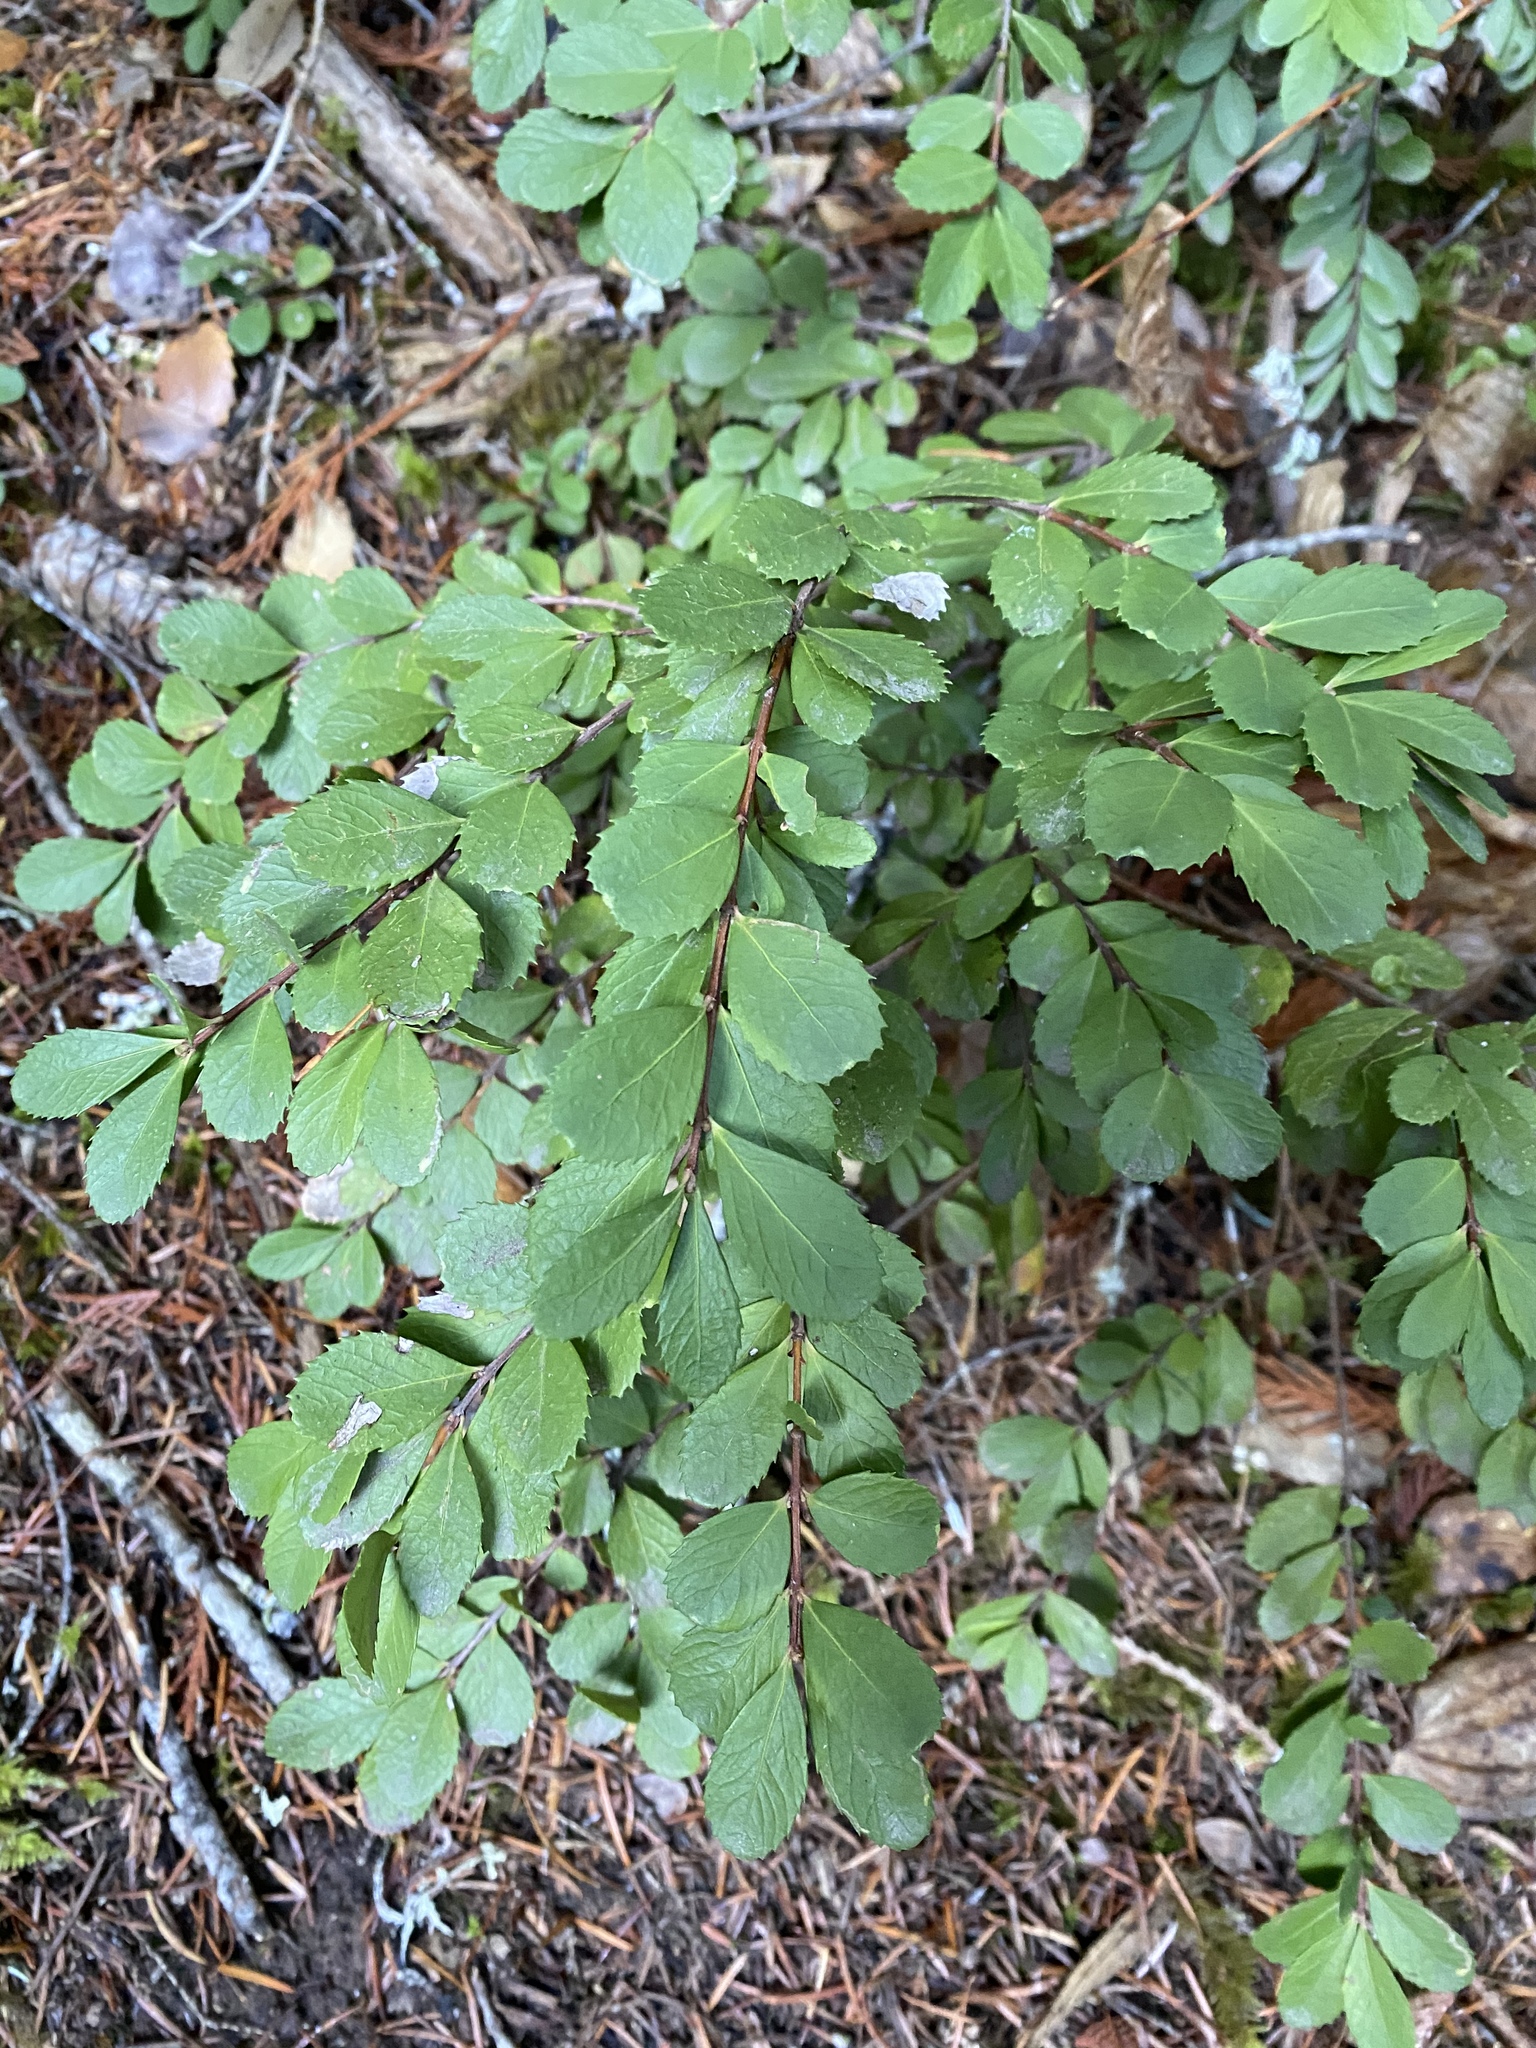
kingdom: Plantae
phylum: Tracheophyta
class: Magnoliopsida
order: Celastrales
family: Celastraceae
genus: Paxistima
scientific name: Paxistima myrsinites
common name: Mountain-lover
